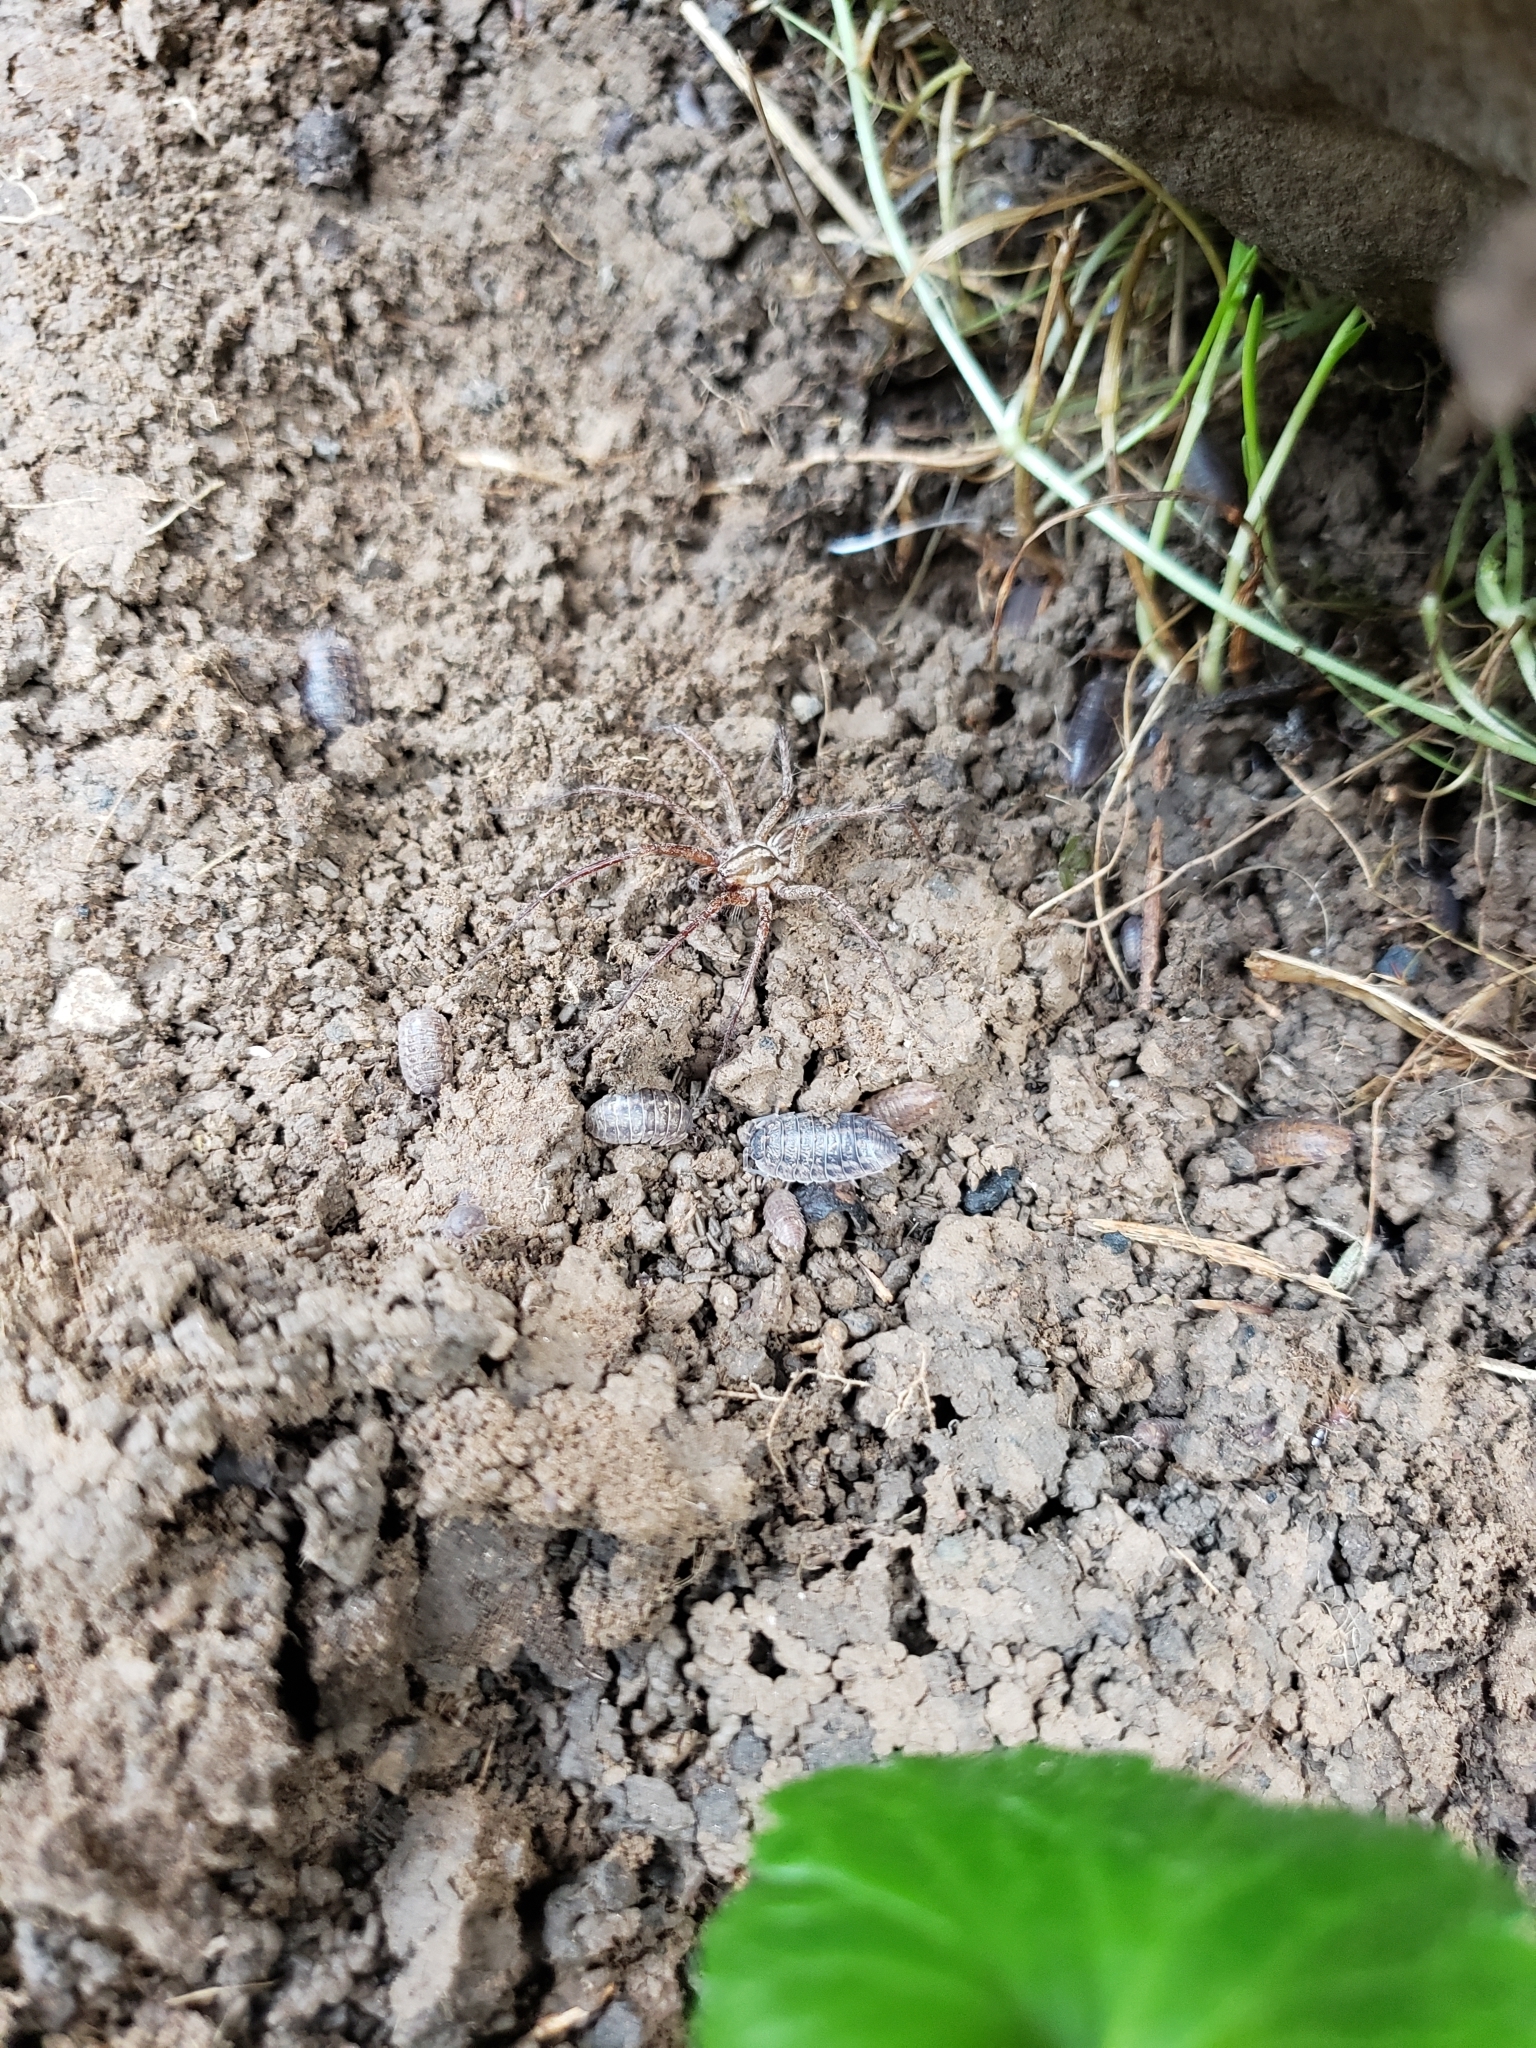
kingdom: Animalia
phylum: Arthropoda
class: Arachnida
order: Araneae
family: Agelenidae
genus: Agelenopsis
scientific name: Agelenopsis
